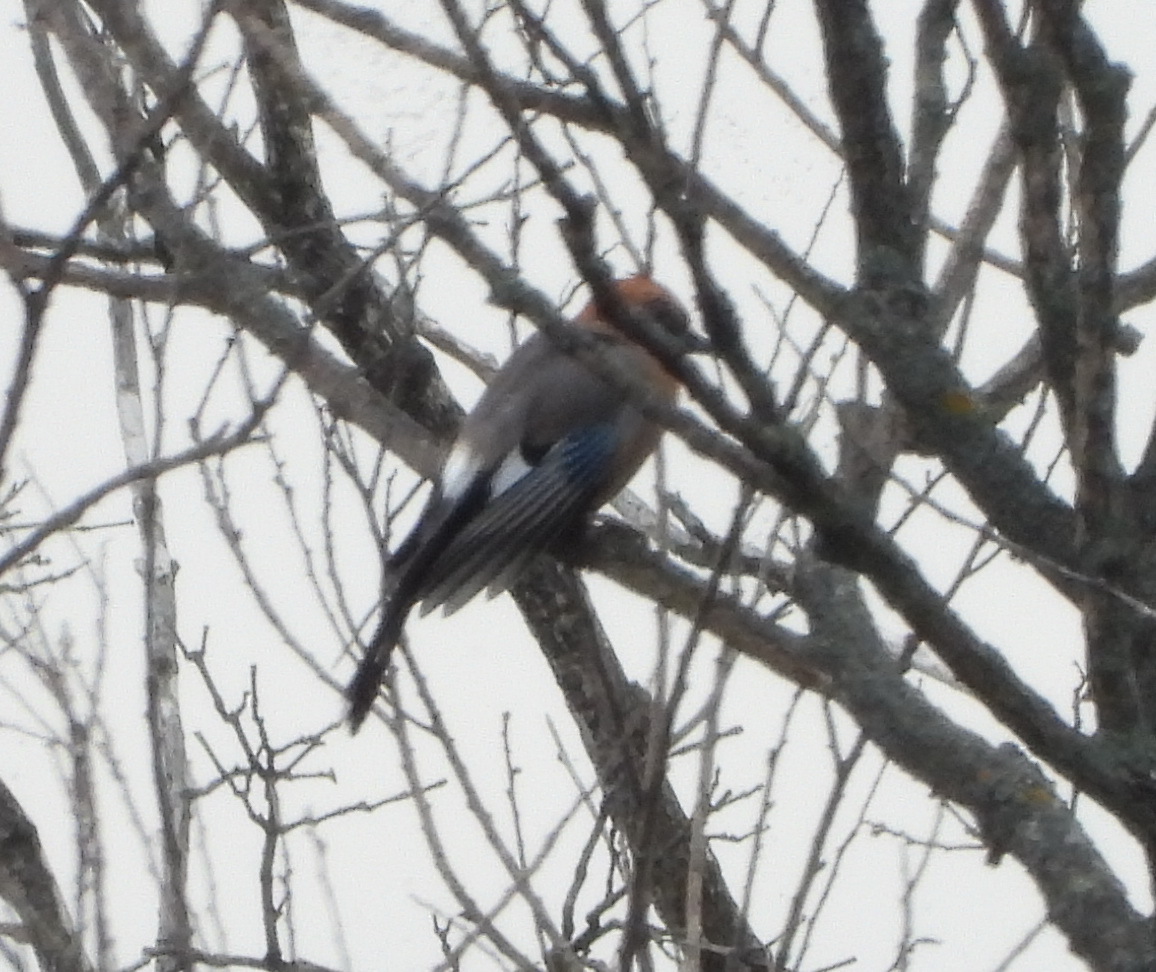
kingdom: Animalia
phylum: Chordata
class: Aves
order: Passeriformes
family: Corvidae
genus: Garrulus
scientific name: Garrulus glandarius
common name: Eurasian jay
